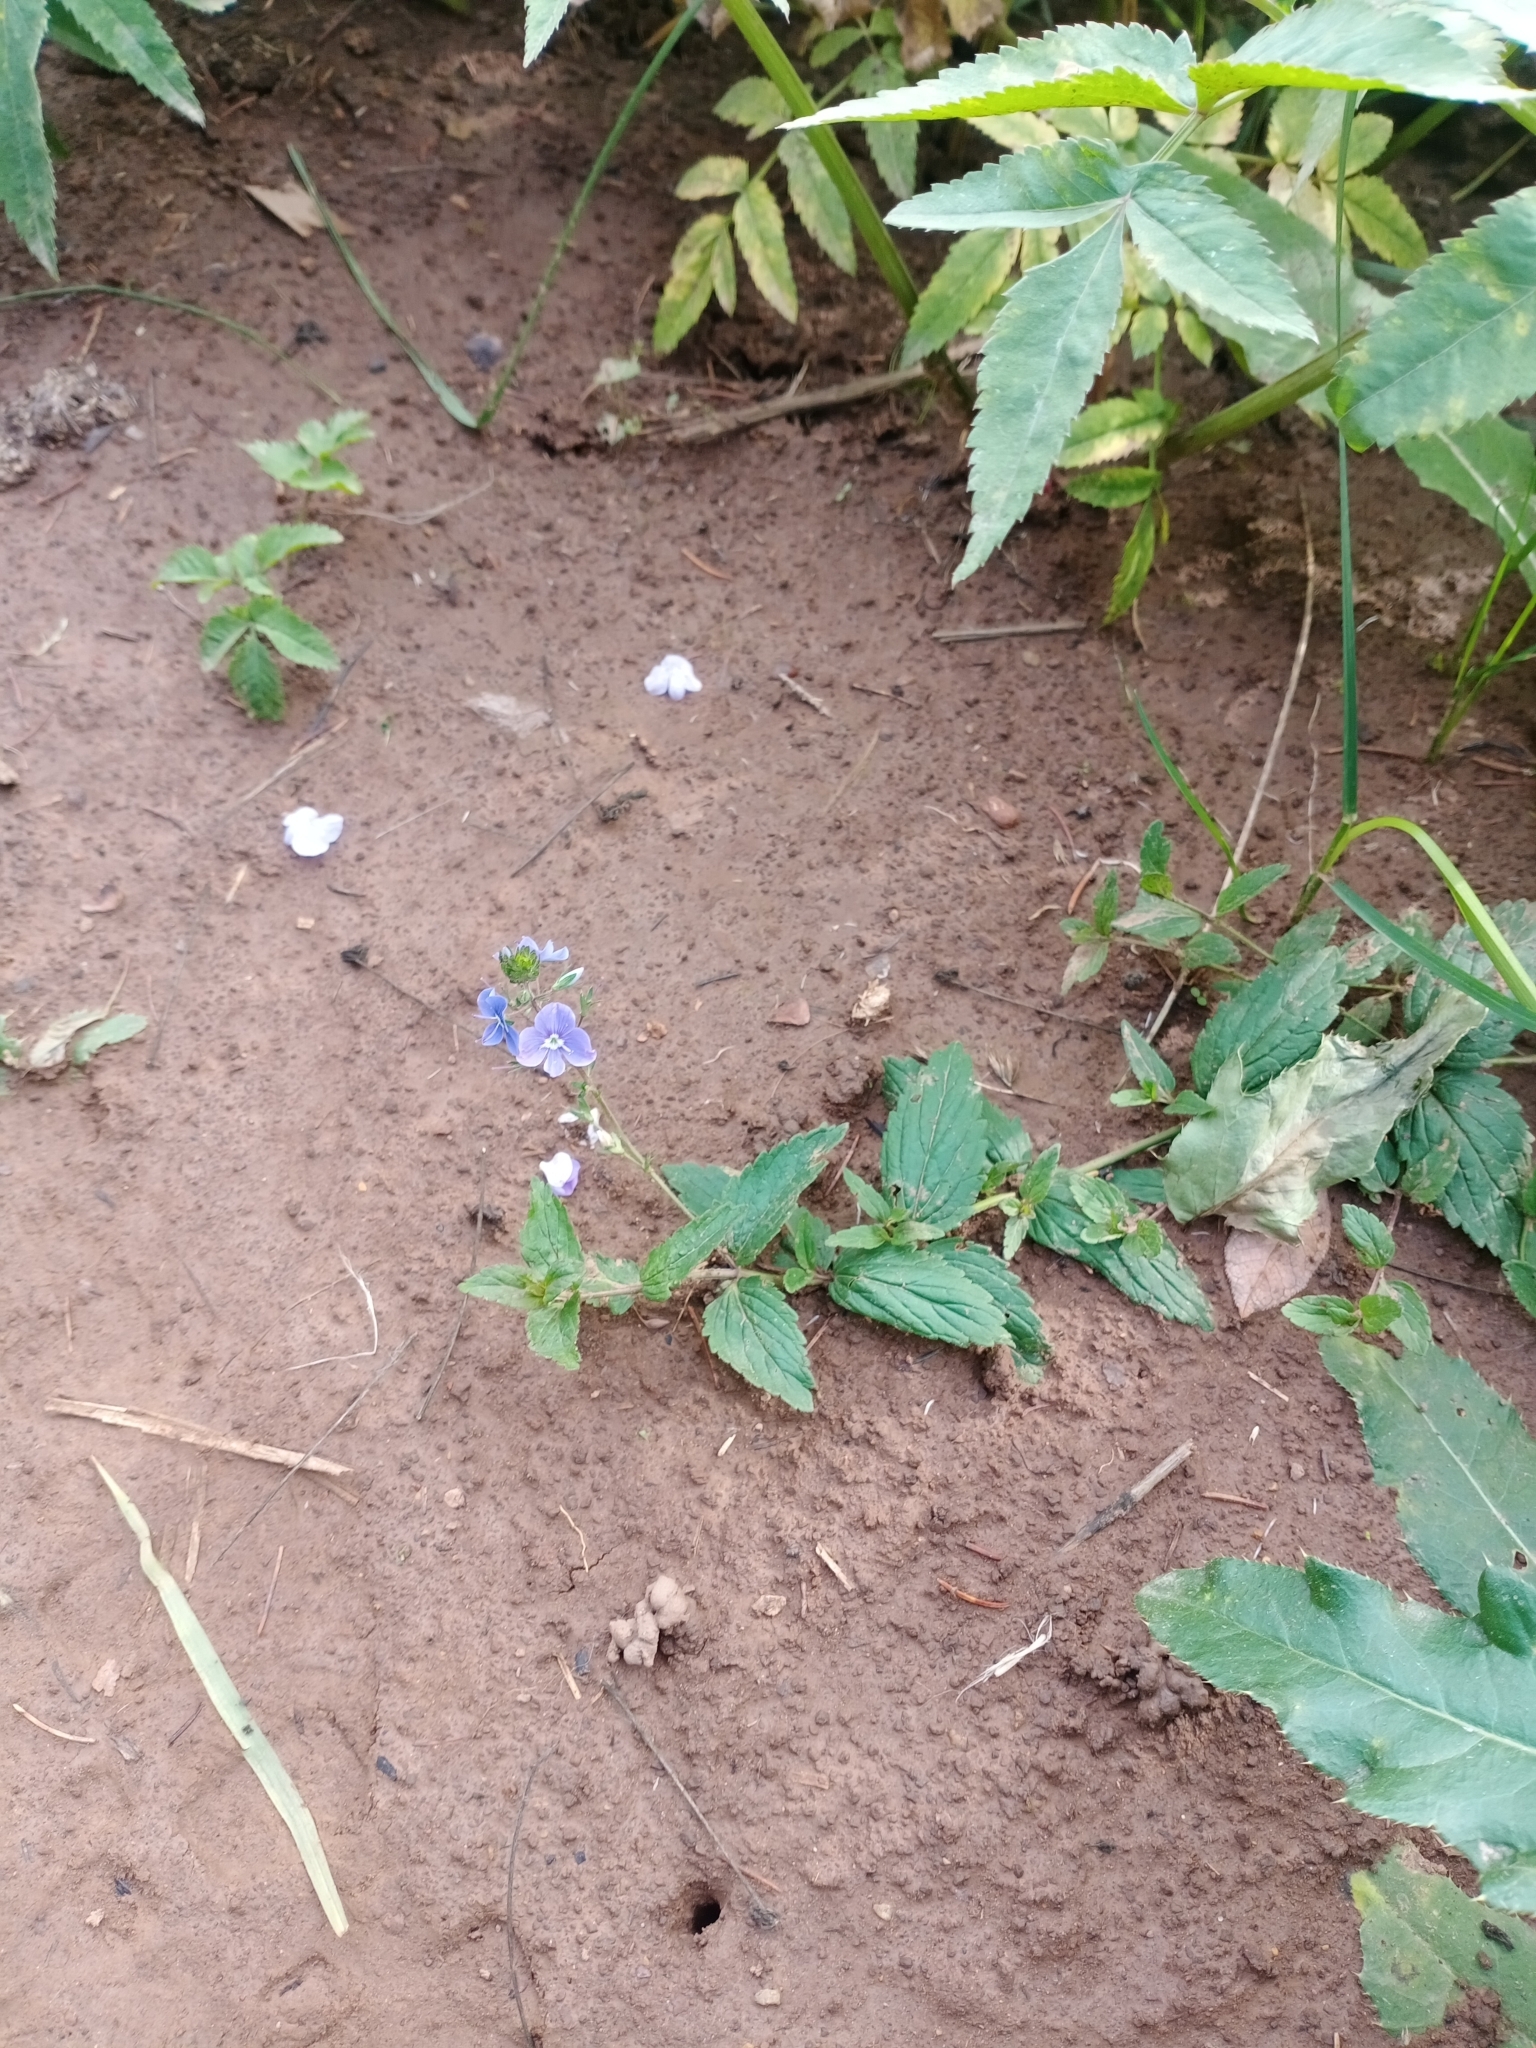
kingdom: Plantae
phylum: Tracheophyta
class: Magnoliopsida
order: Lamiales
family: Plantaginaceae
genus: Veronica
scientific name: Veronica chamaedrys
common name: Germander speedwell
